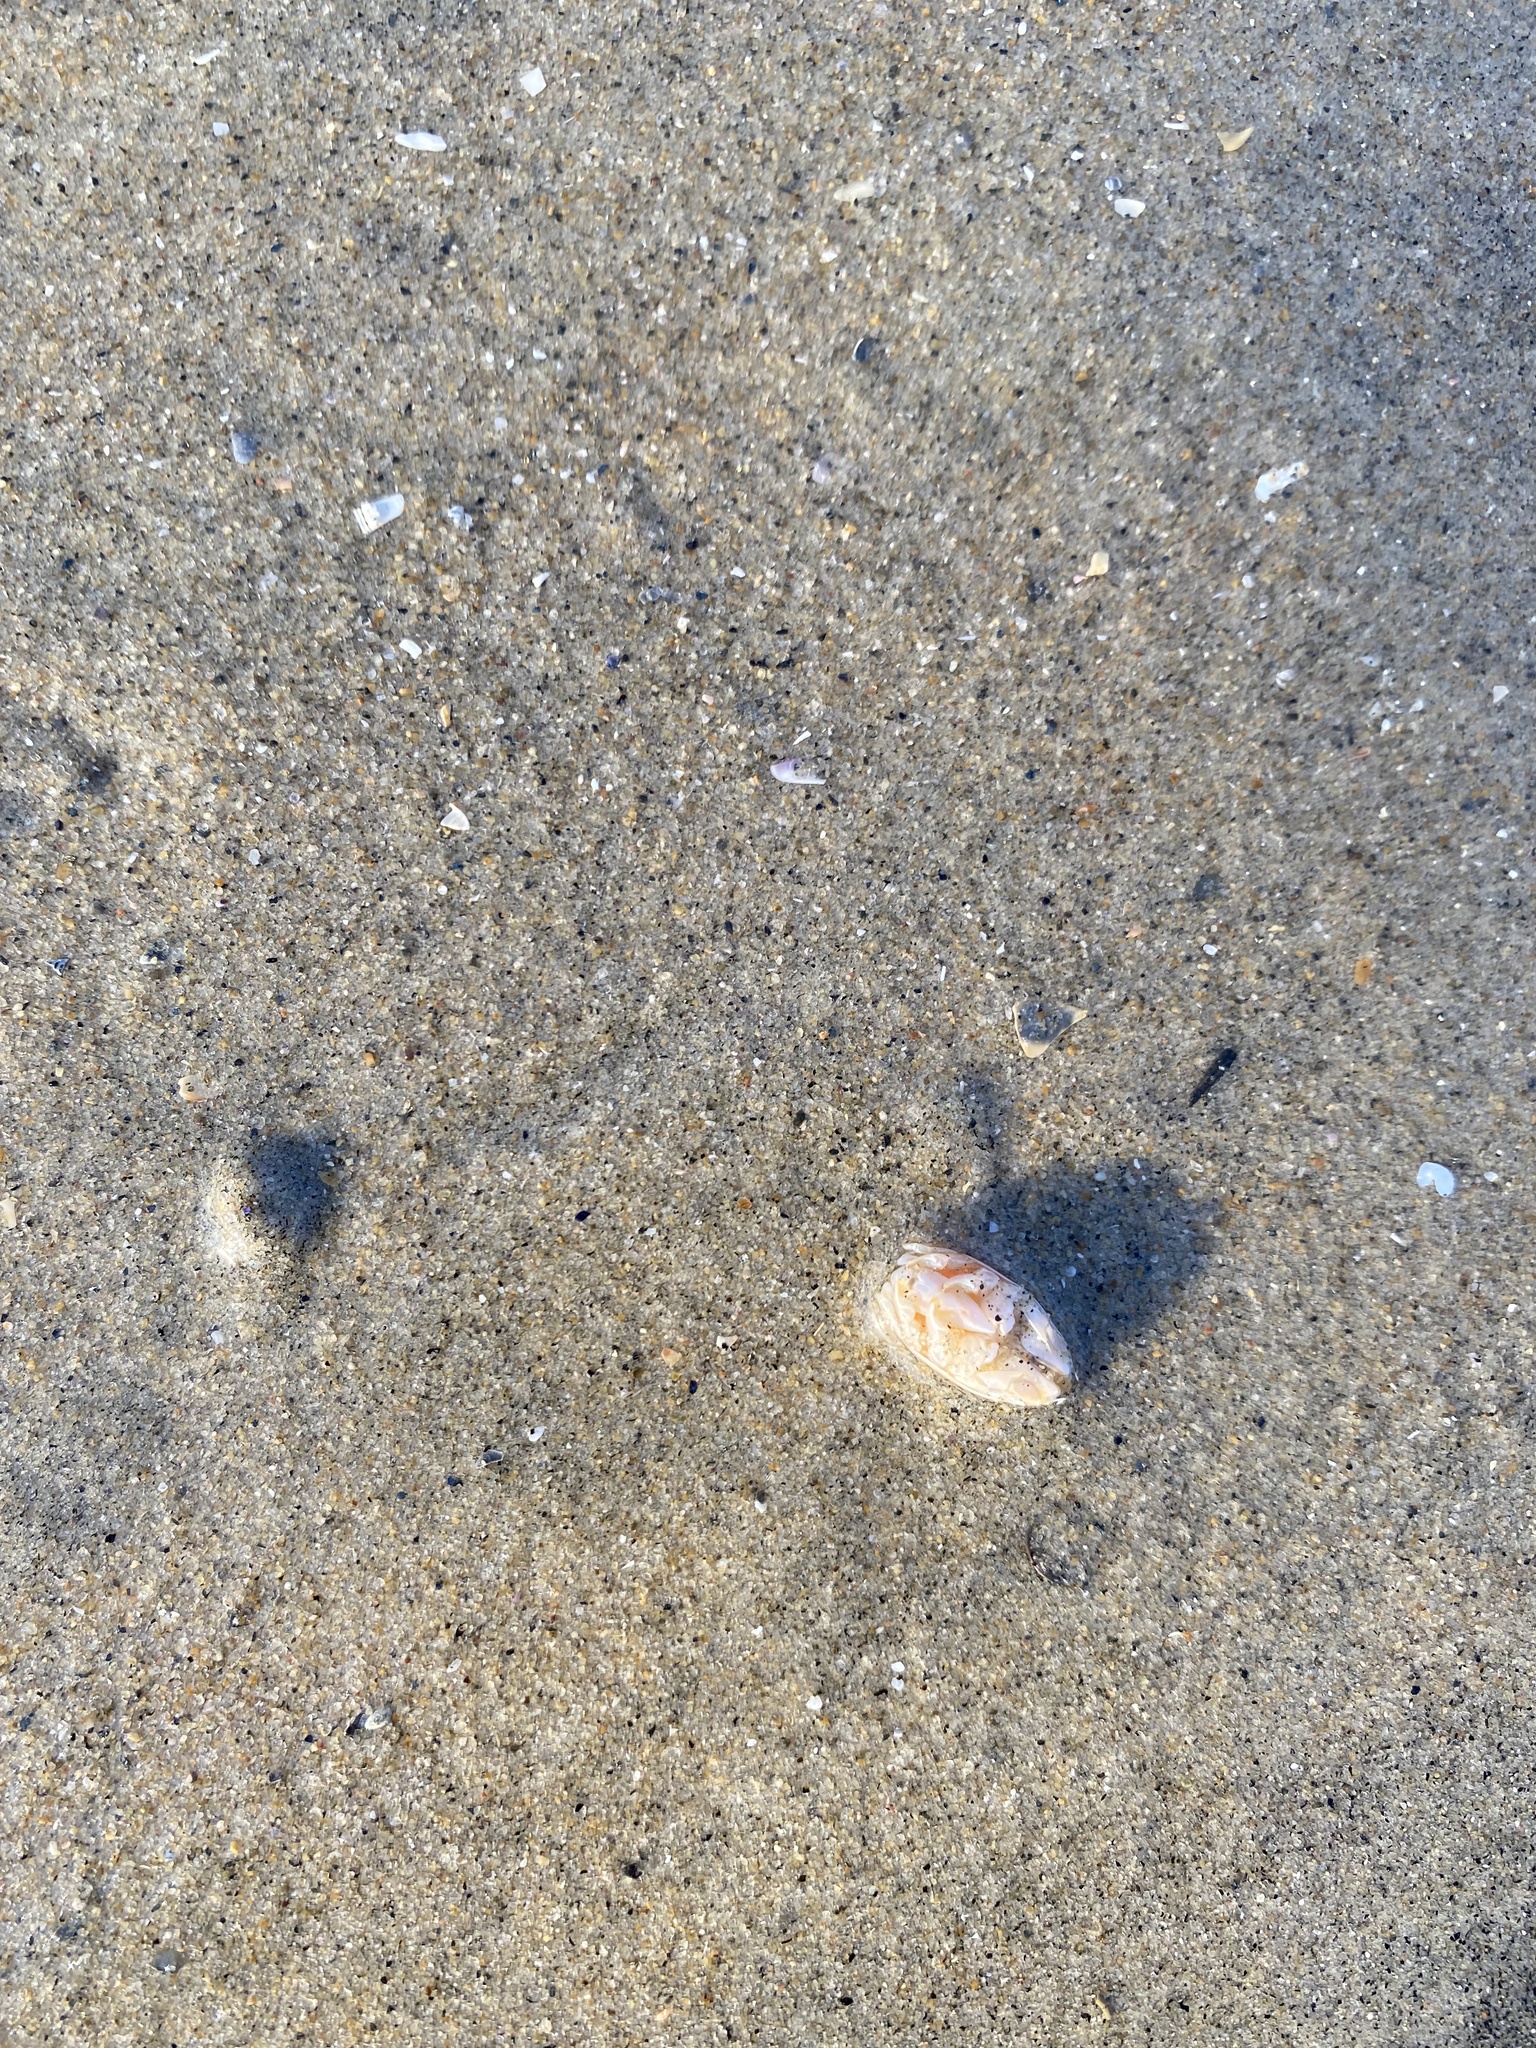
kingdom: Animalia
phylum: Arthropoda
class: Malacostraca
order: Decapoda
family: Hippidae
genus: Emerita
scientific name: Emerita analoga
